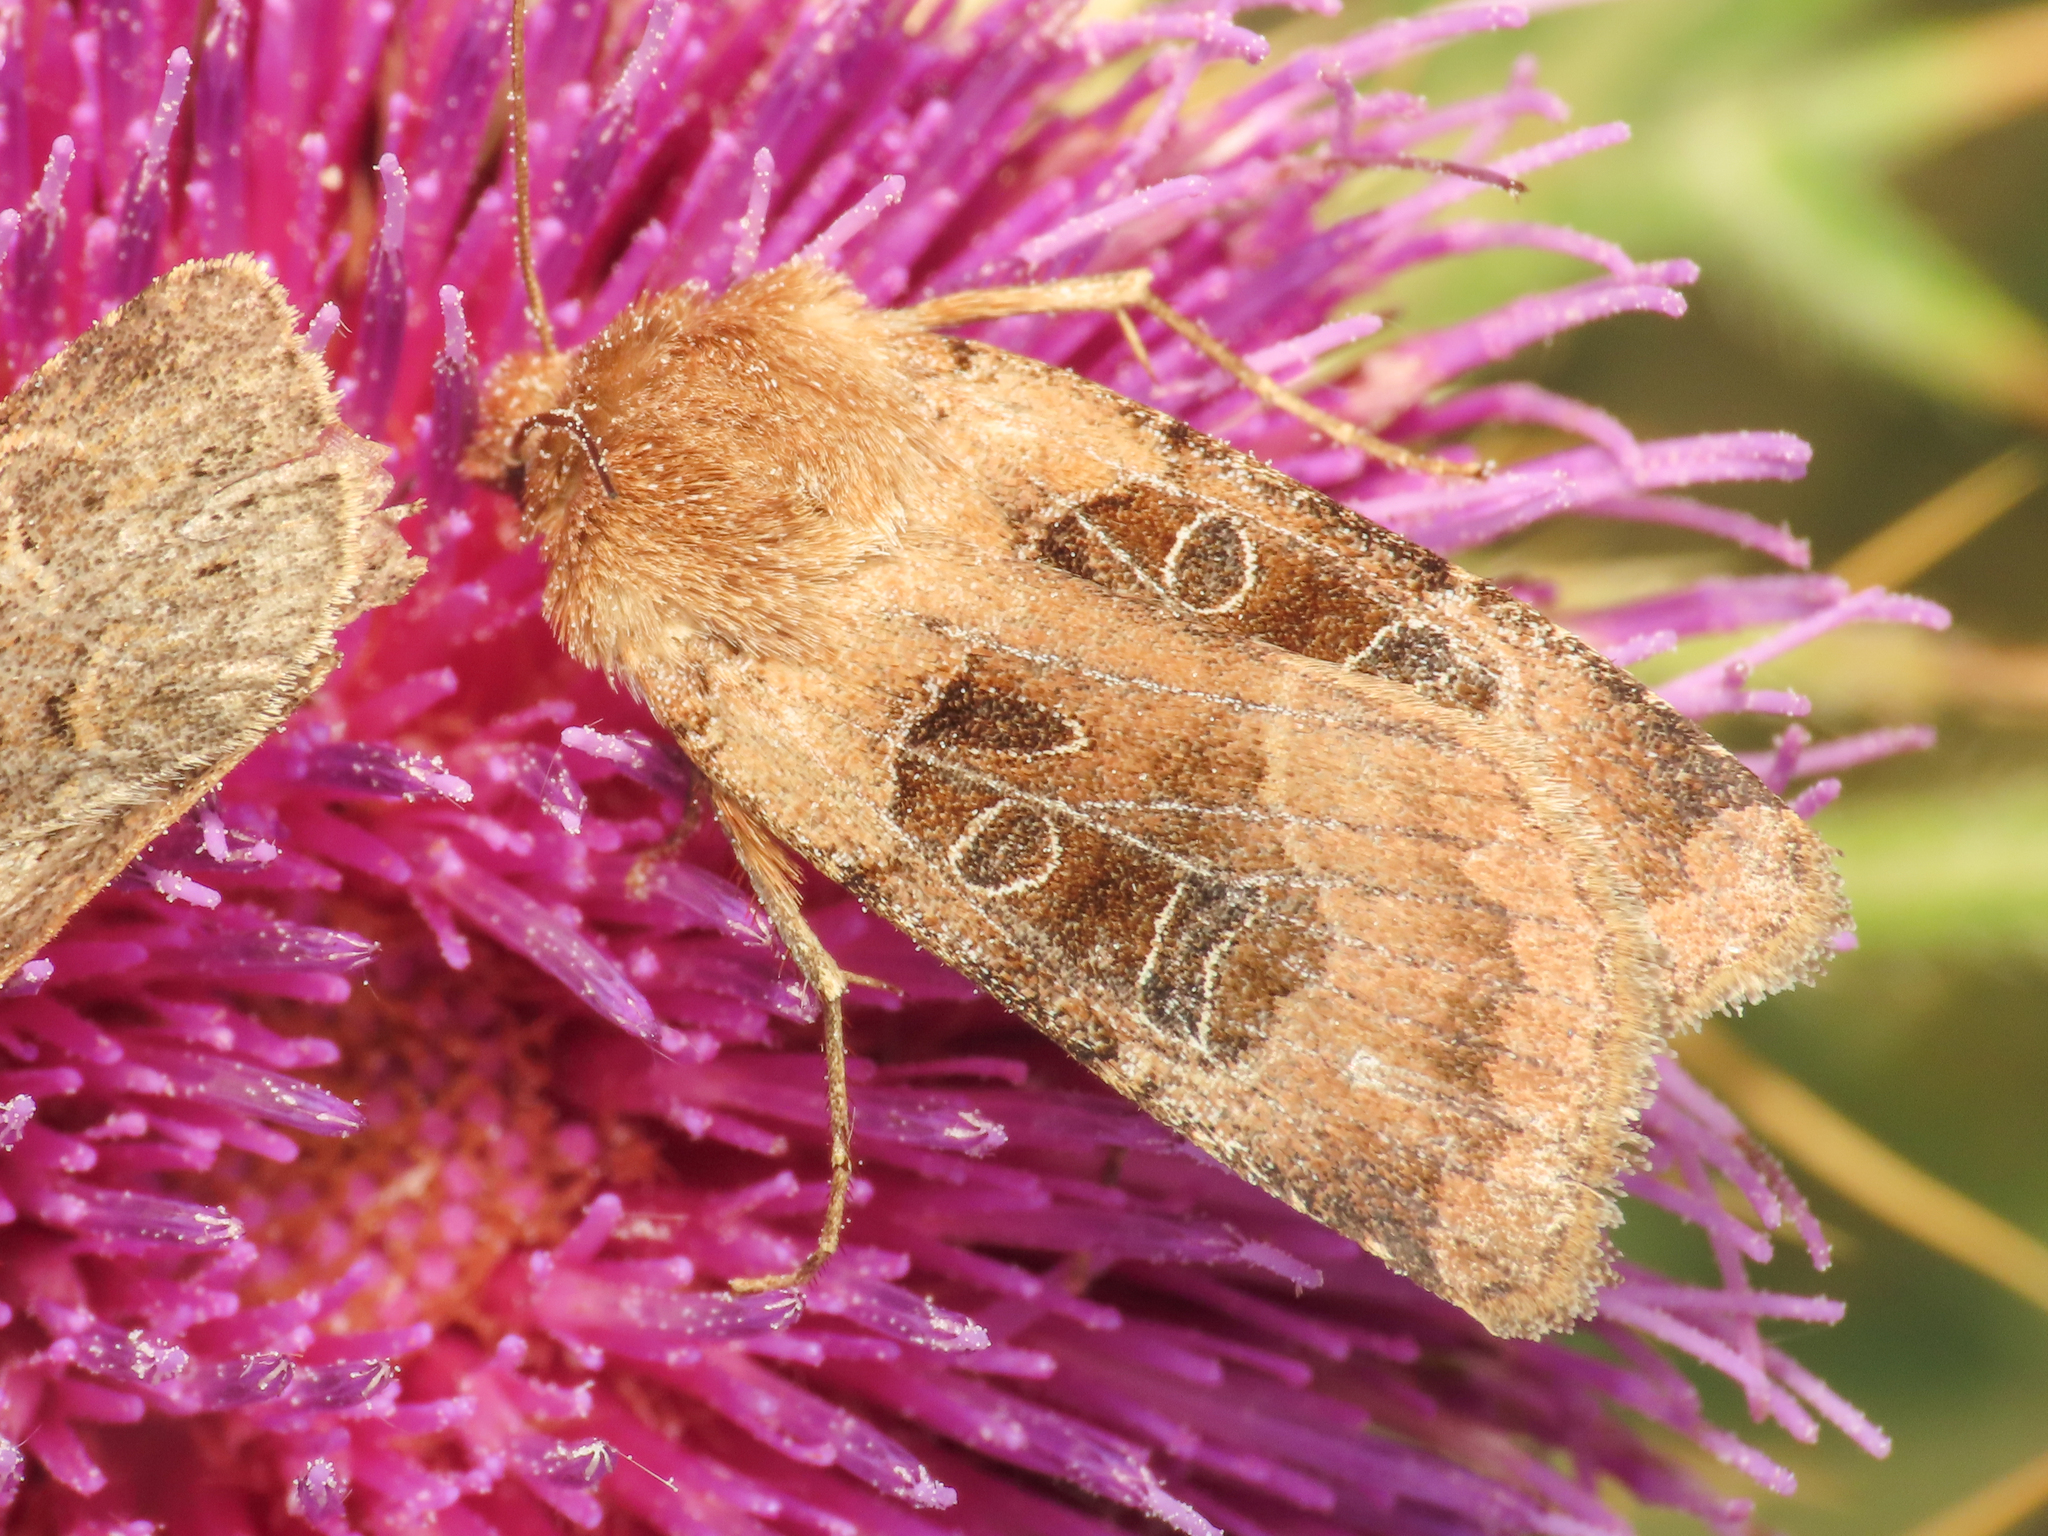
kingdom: Animalia
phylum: Arthropoda
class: Insecta
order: Lepidoptera
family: Noctuidae
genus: Chersotis
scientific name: Chersotis cuprea
